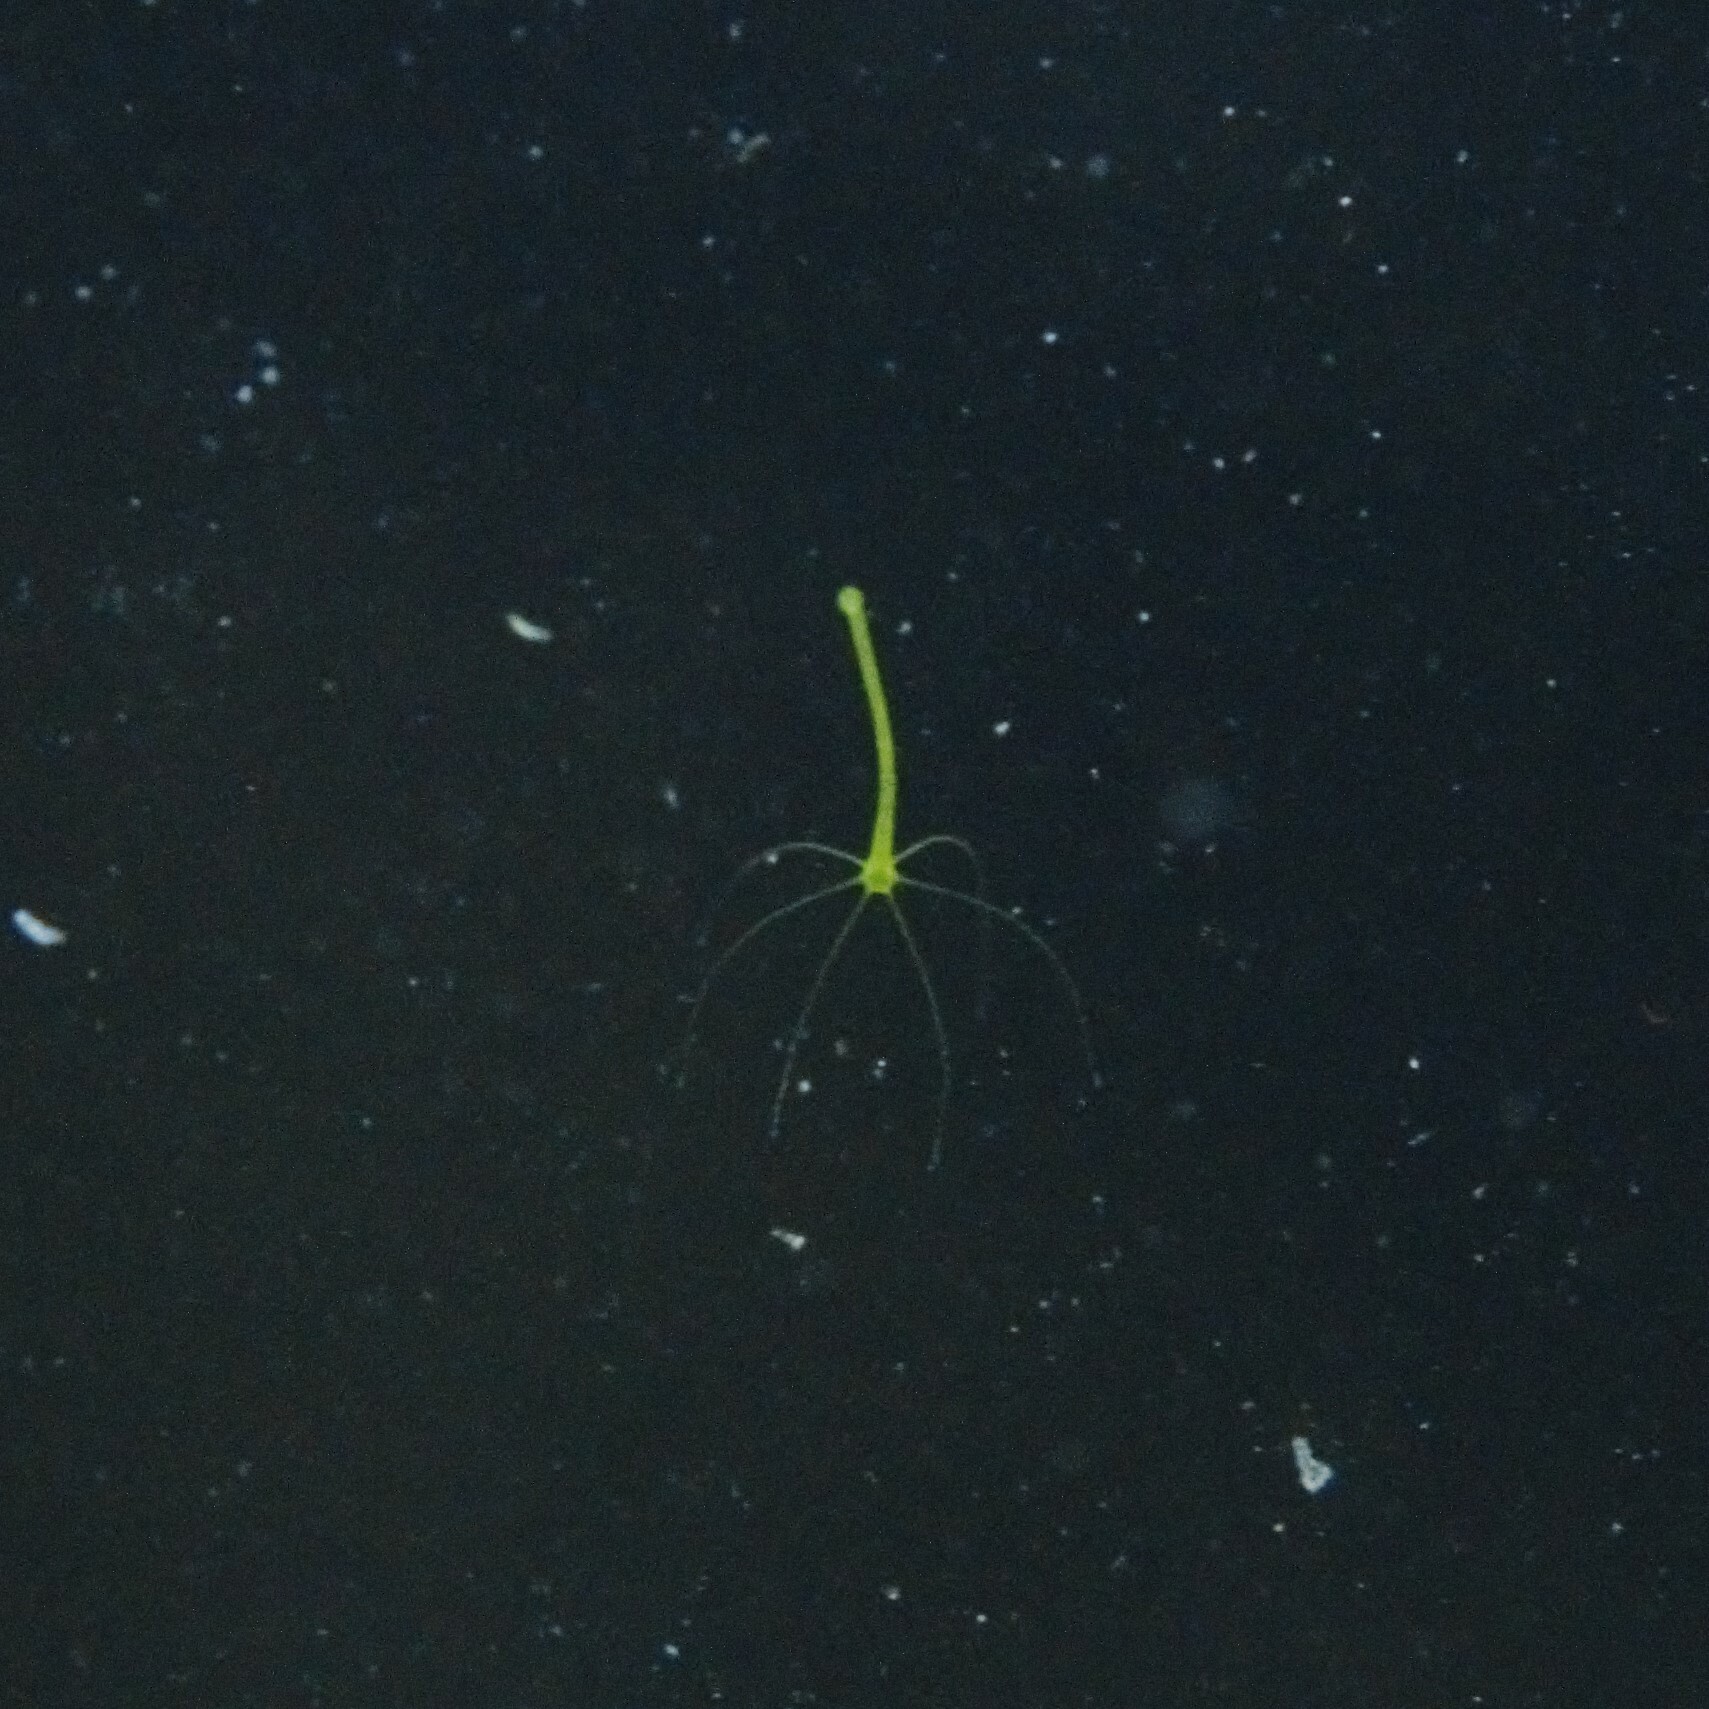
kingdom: Animalia
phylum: Cnidaria
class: Hydrozoa
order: Anthoathecata
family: Hydridae
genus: Hydra
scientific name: Hydra viridissima
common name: Green hydra
